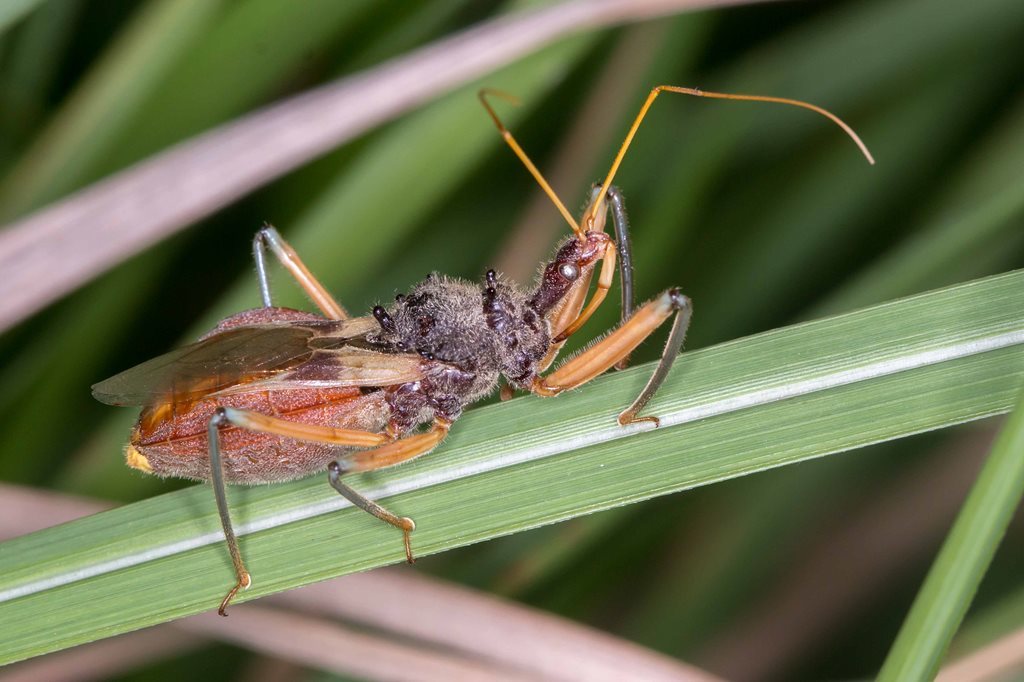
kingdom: Animalia
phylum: Arthropoda
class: Insecta
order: Hemiptera
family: Reduviidae
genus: Pristhesancus
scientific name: Pristhesancus plagipennis
